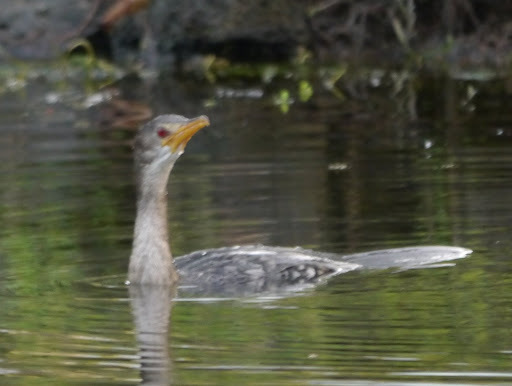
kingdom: Animalia
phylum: Chordata
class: Aves
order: Suliformes
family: Phalacrocoracidae
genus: Microcarbo
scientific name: Microcarbo africanus
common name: Long-tailed cormorant
